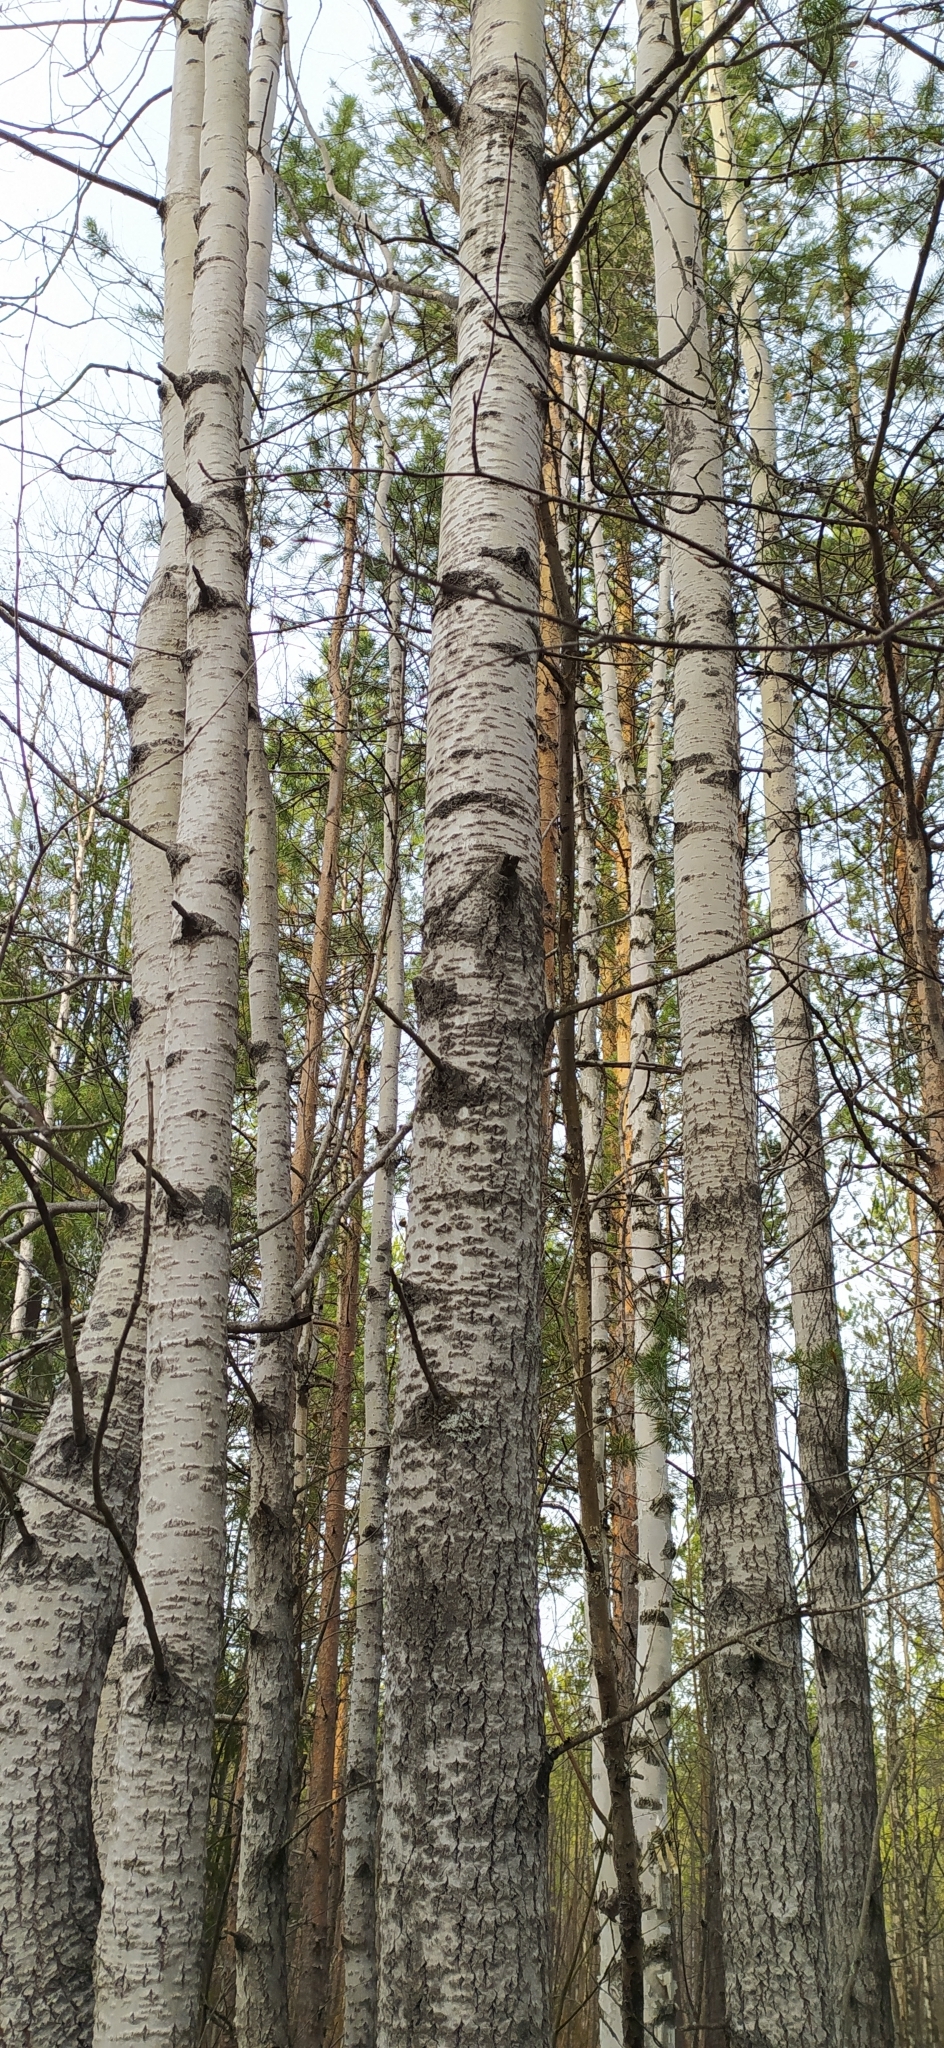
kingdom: Plantae
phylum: Tracheophyta
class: Magnoliopsida
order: Malpighiales
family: Salicaceae
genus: Populus
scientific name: Populus tremula
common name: European aspen
